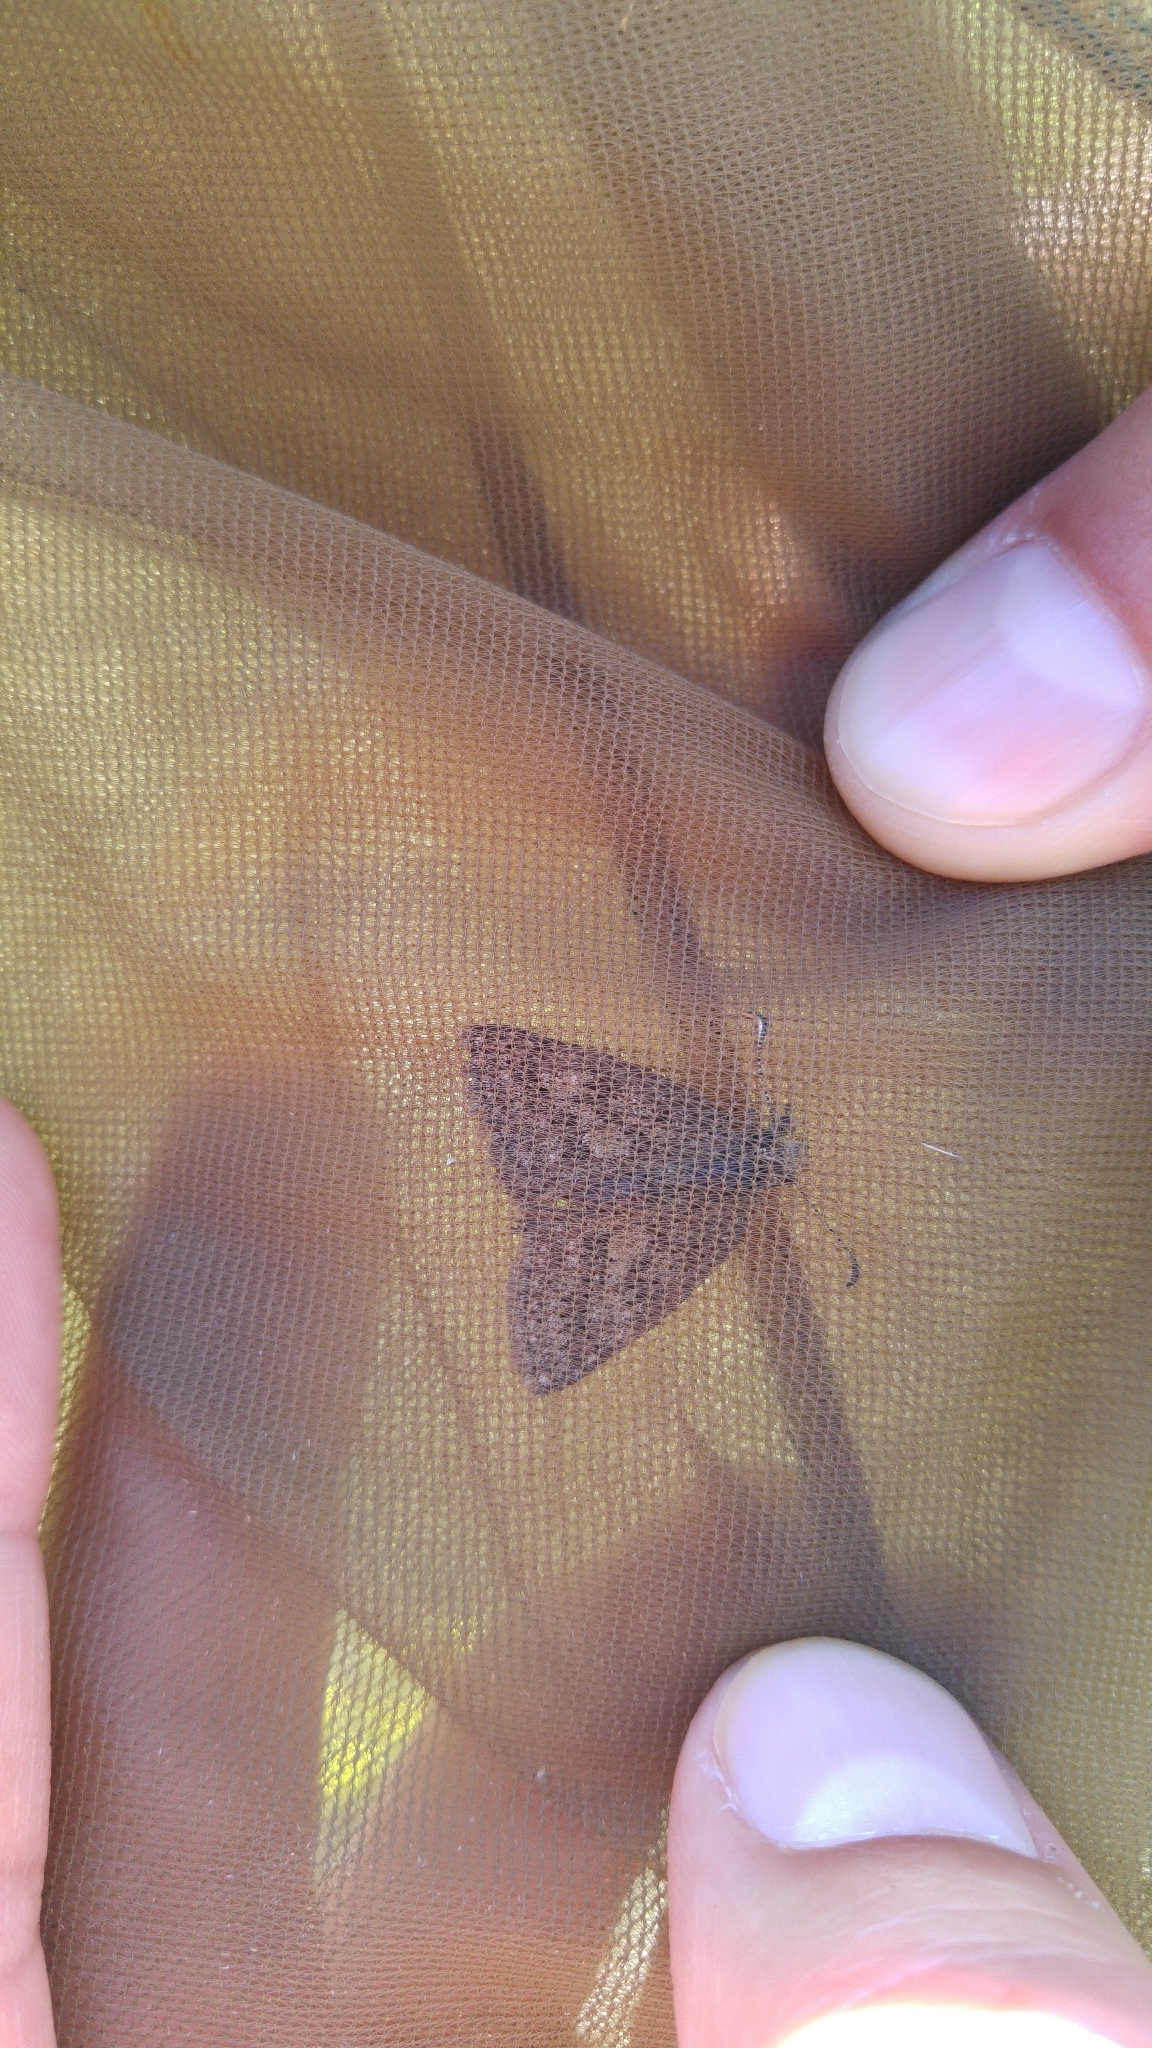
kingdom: Animalia
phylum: Arthropoda
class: Insecta
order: Lepidoptera
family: Hesperiidae
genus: Erynnis
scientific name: Erynnis tages
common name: Dingy skipper
